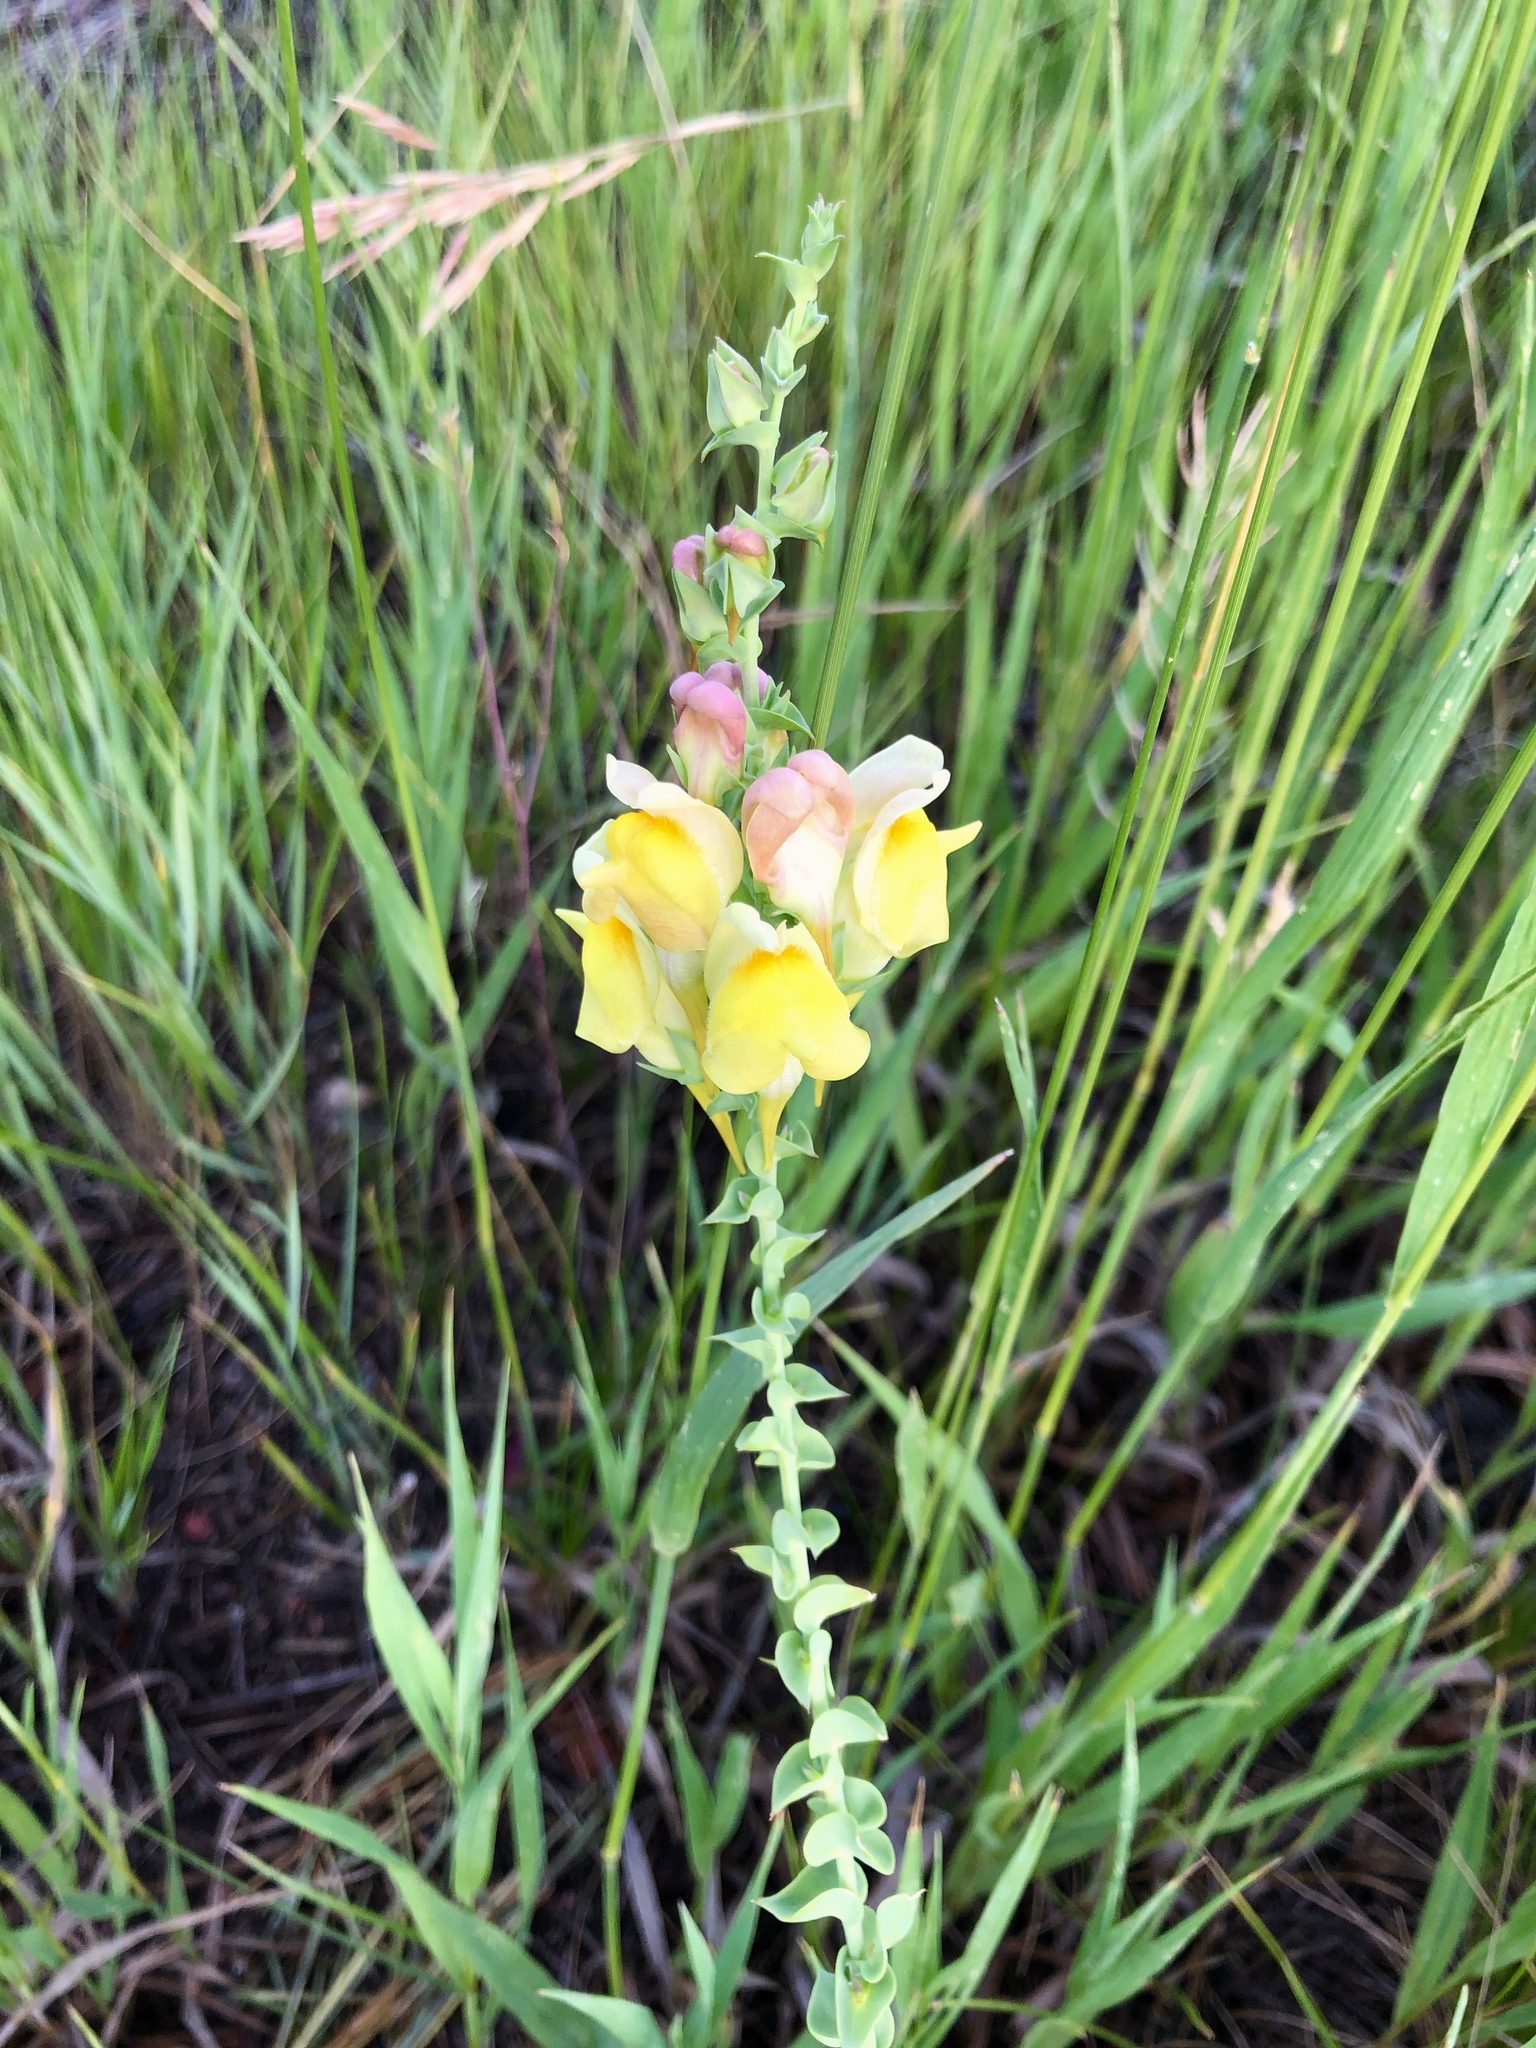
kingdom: Plantae
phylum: Tracheophyta
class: Magnoliopsida
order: Lamiales
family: Plantaginaceae
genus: Linaria
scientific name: Linaria dalmatica
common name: Dalmatian toadflax
